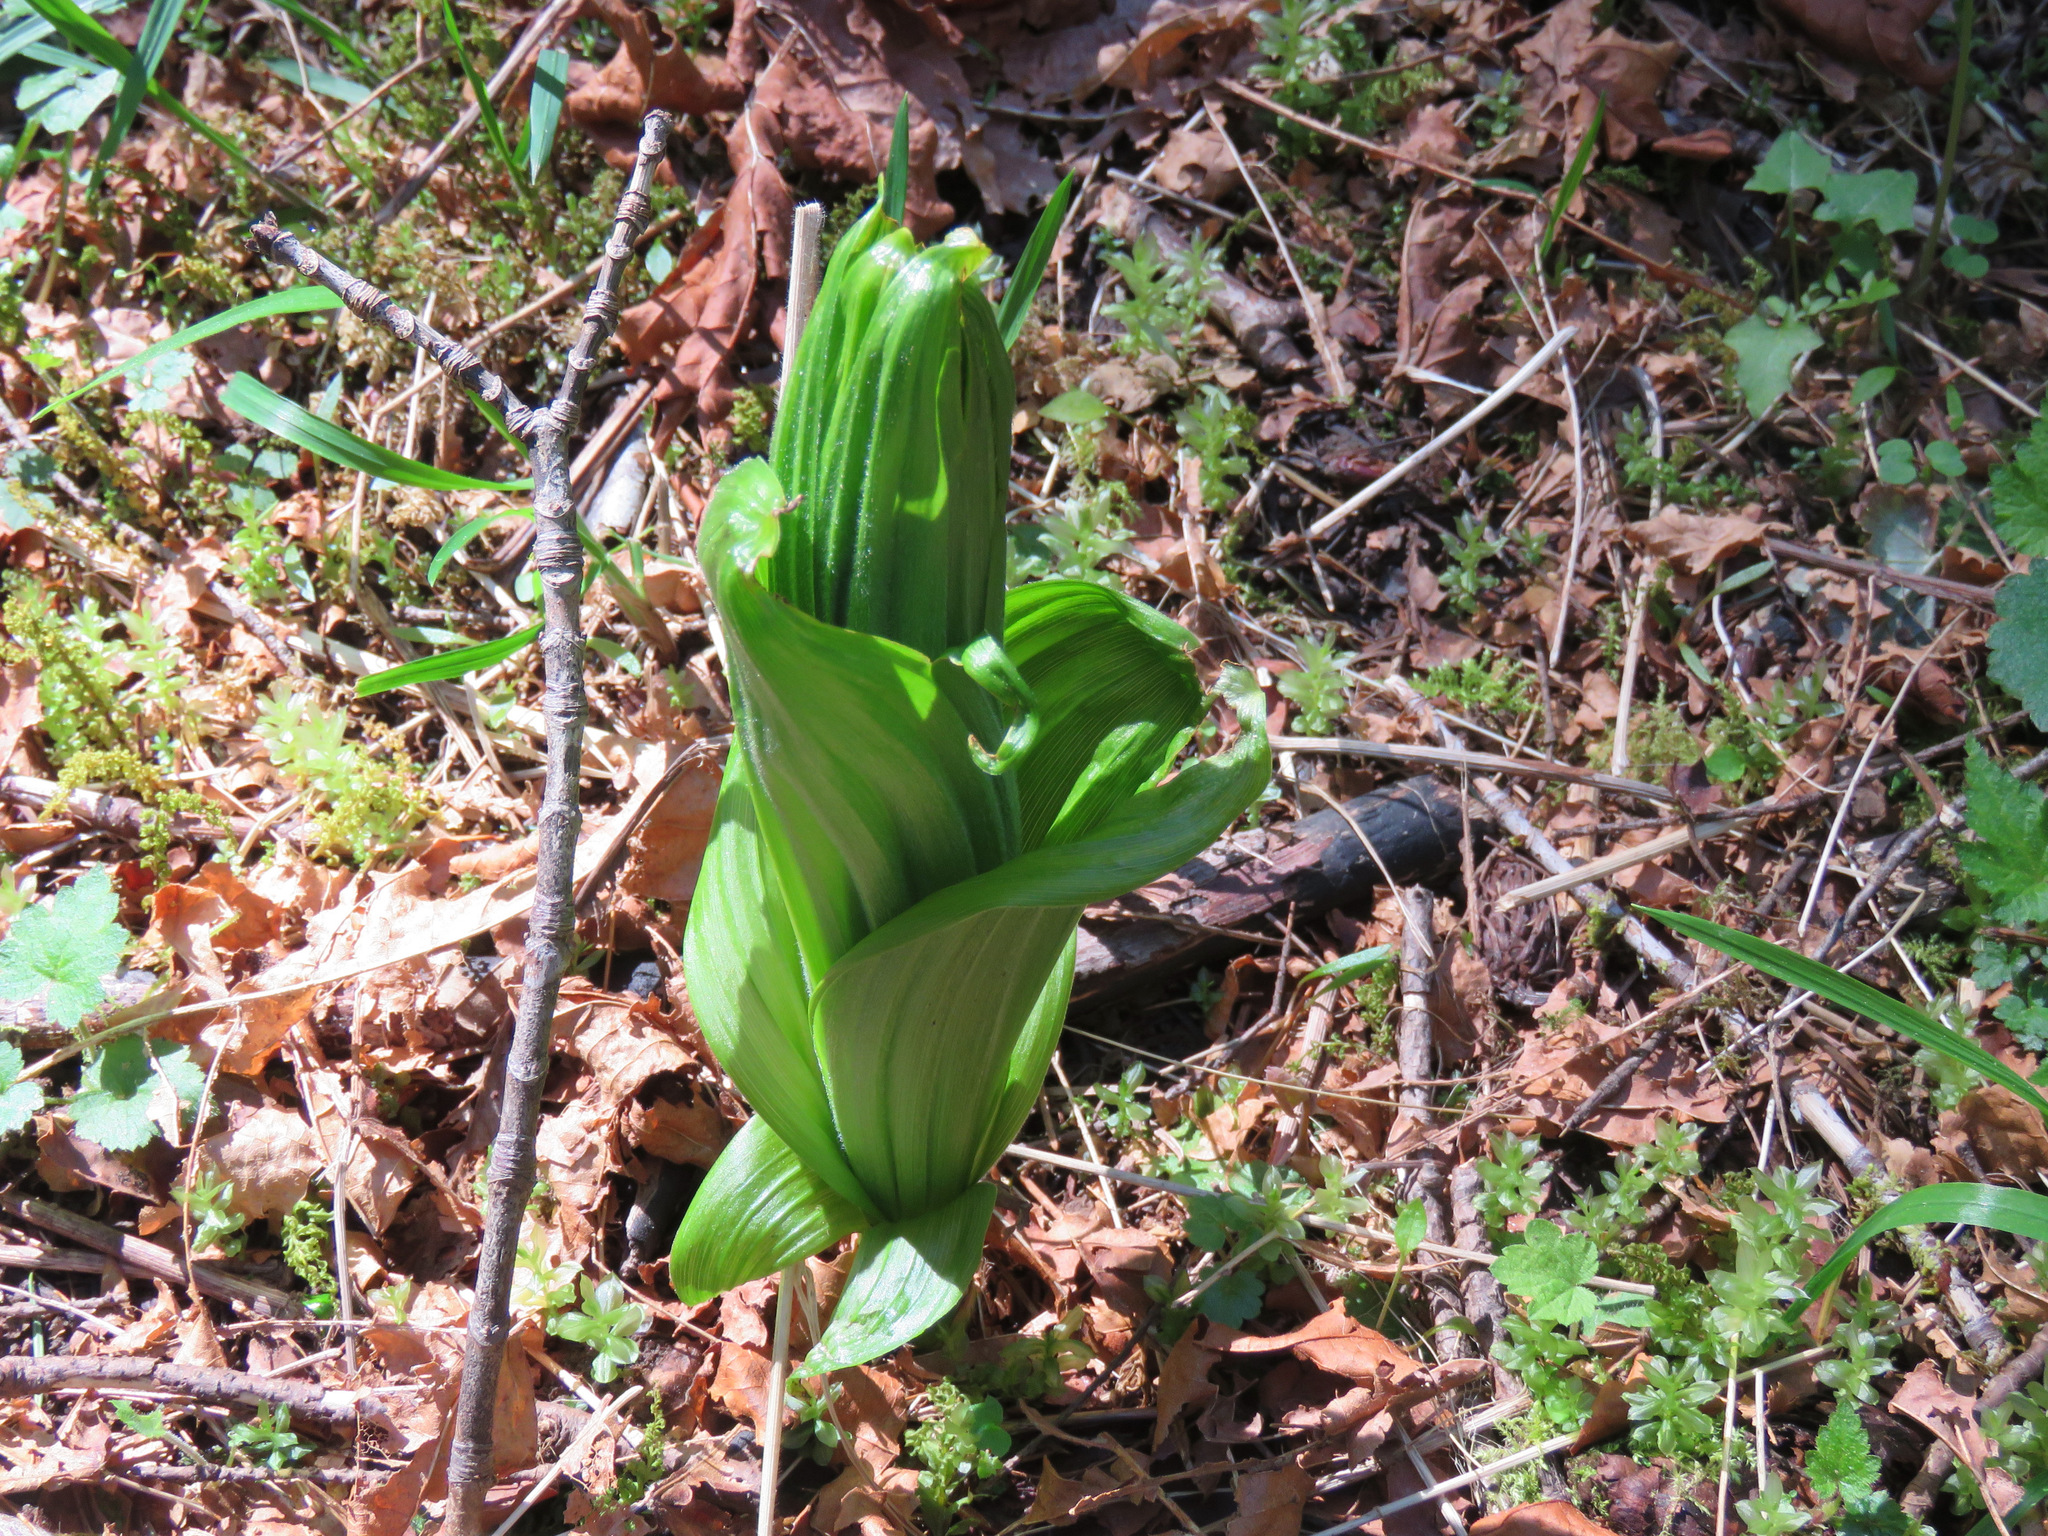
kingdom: Plantae
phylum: Tracheophyta
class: Liliopsida
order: Liliales
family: Melanthiaceae
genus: Veratrum
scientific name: Veratrum viride
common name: American false hellebore
